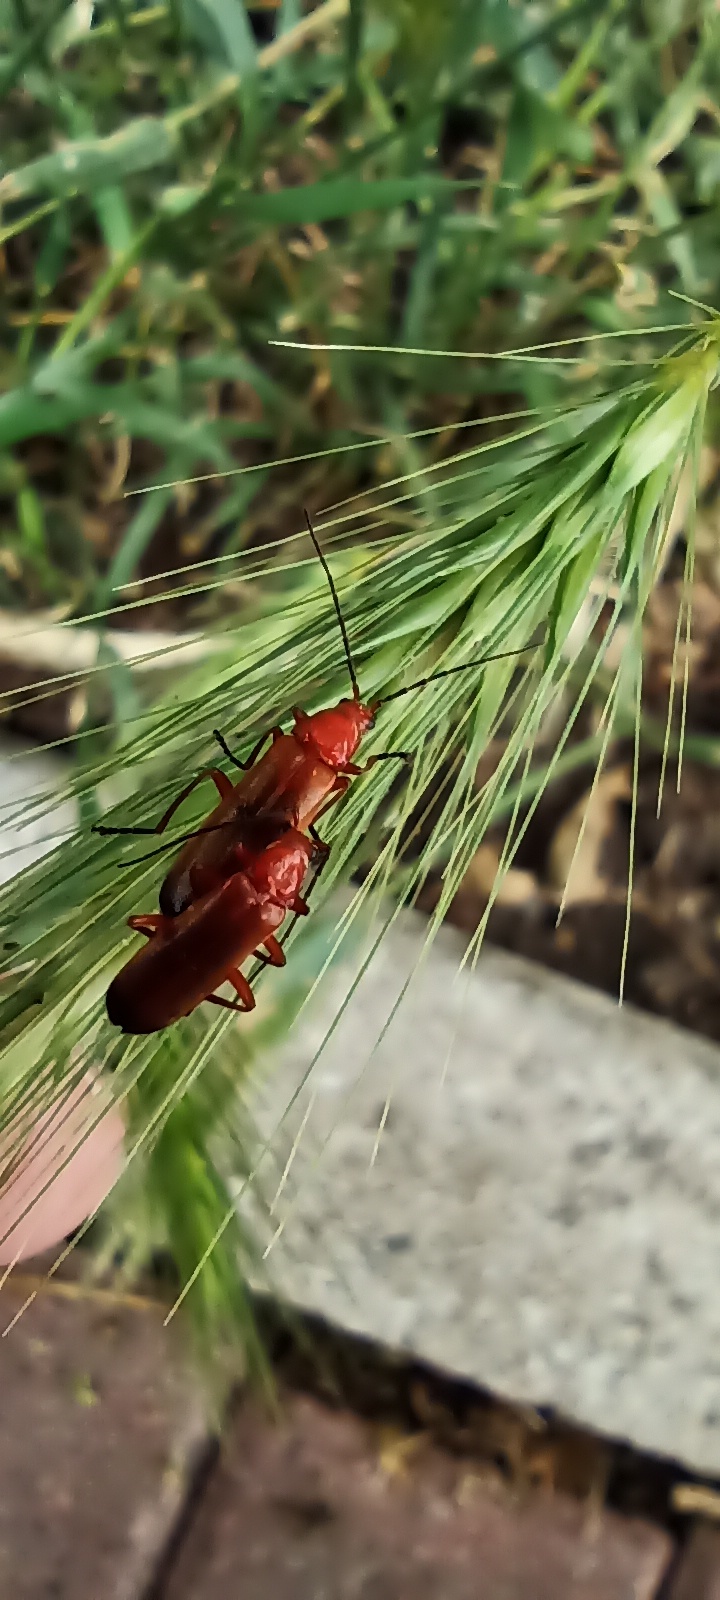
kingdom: Animalia
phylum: Arthropoda
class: Insecta
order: Coleoptera
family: Cantharidae
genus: Rhagonycha
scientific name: Rhagonycha fulva
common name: Common red soldier beetle
